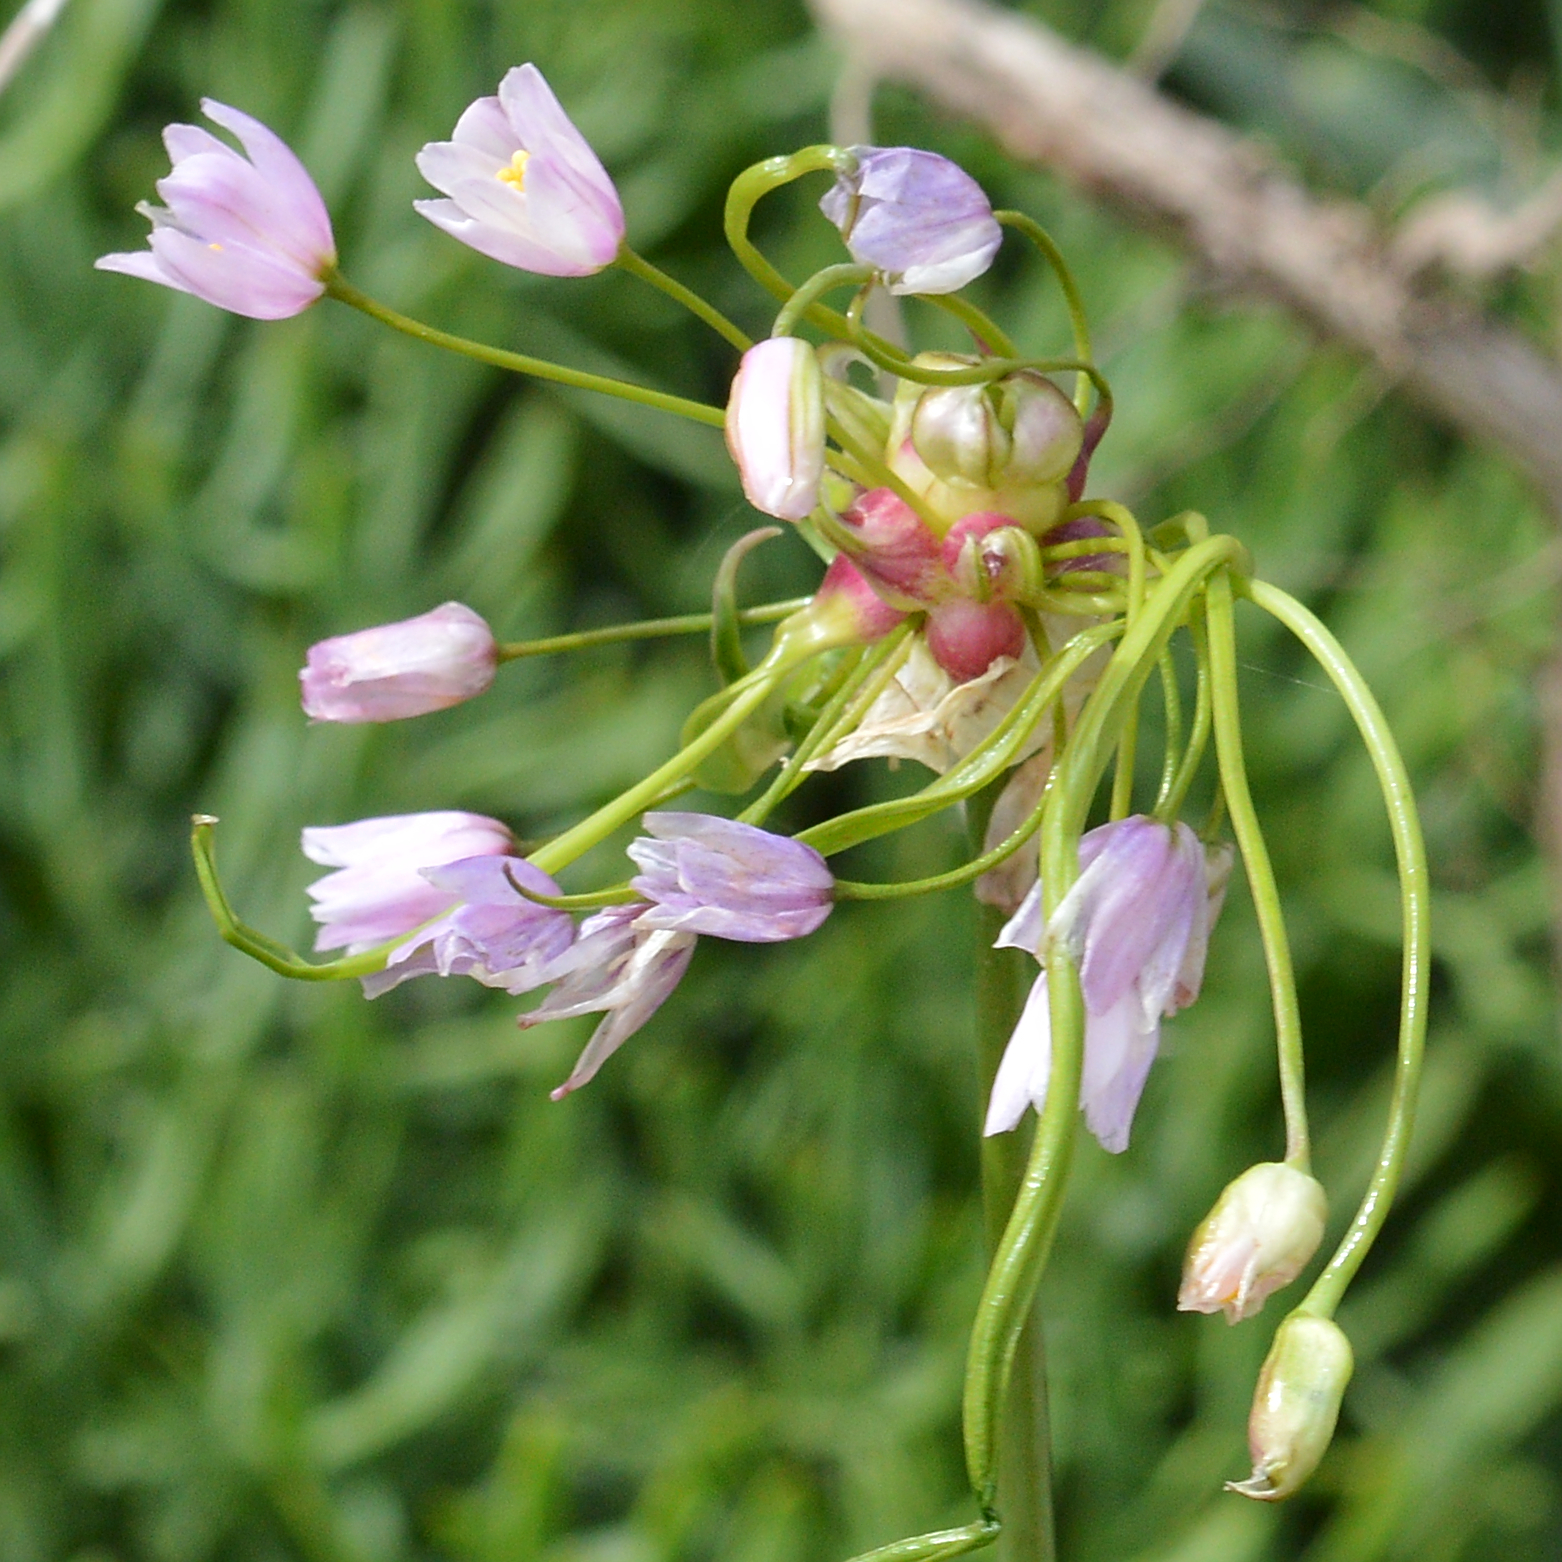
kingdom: Plantae
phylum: Tracheophyta
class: Liliopsida
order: Asparagales
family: Amaryllidaceae
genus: Allium
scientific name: Allium roseum
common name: Rosy garlic
